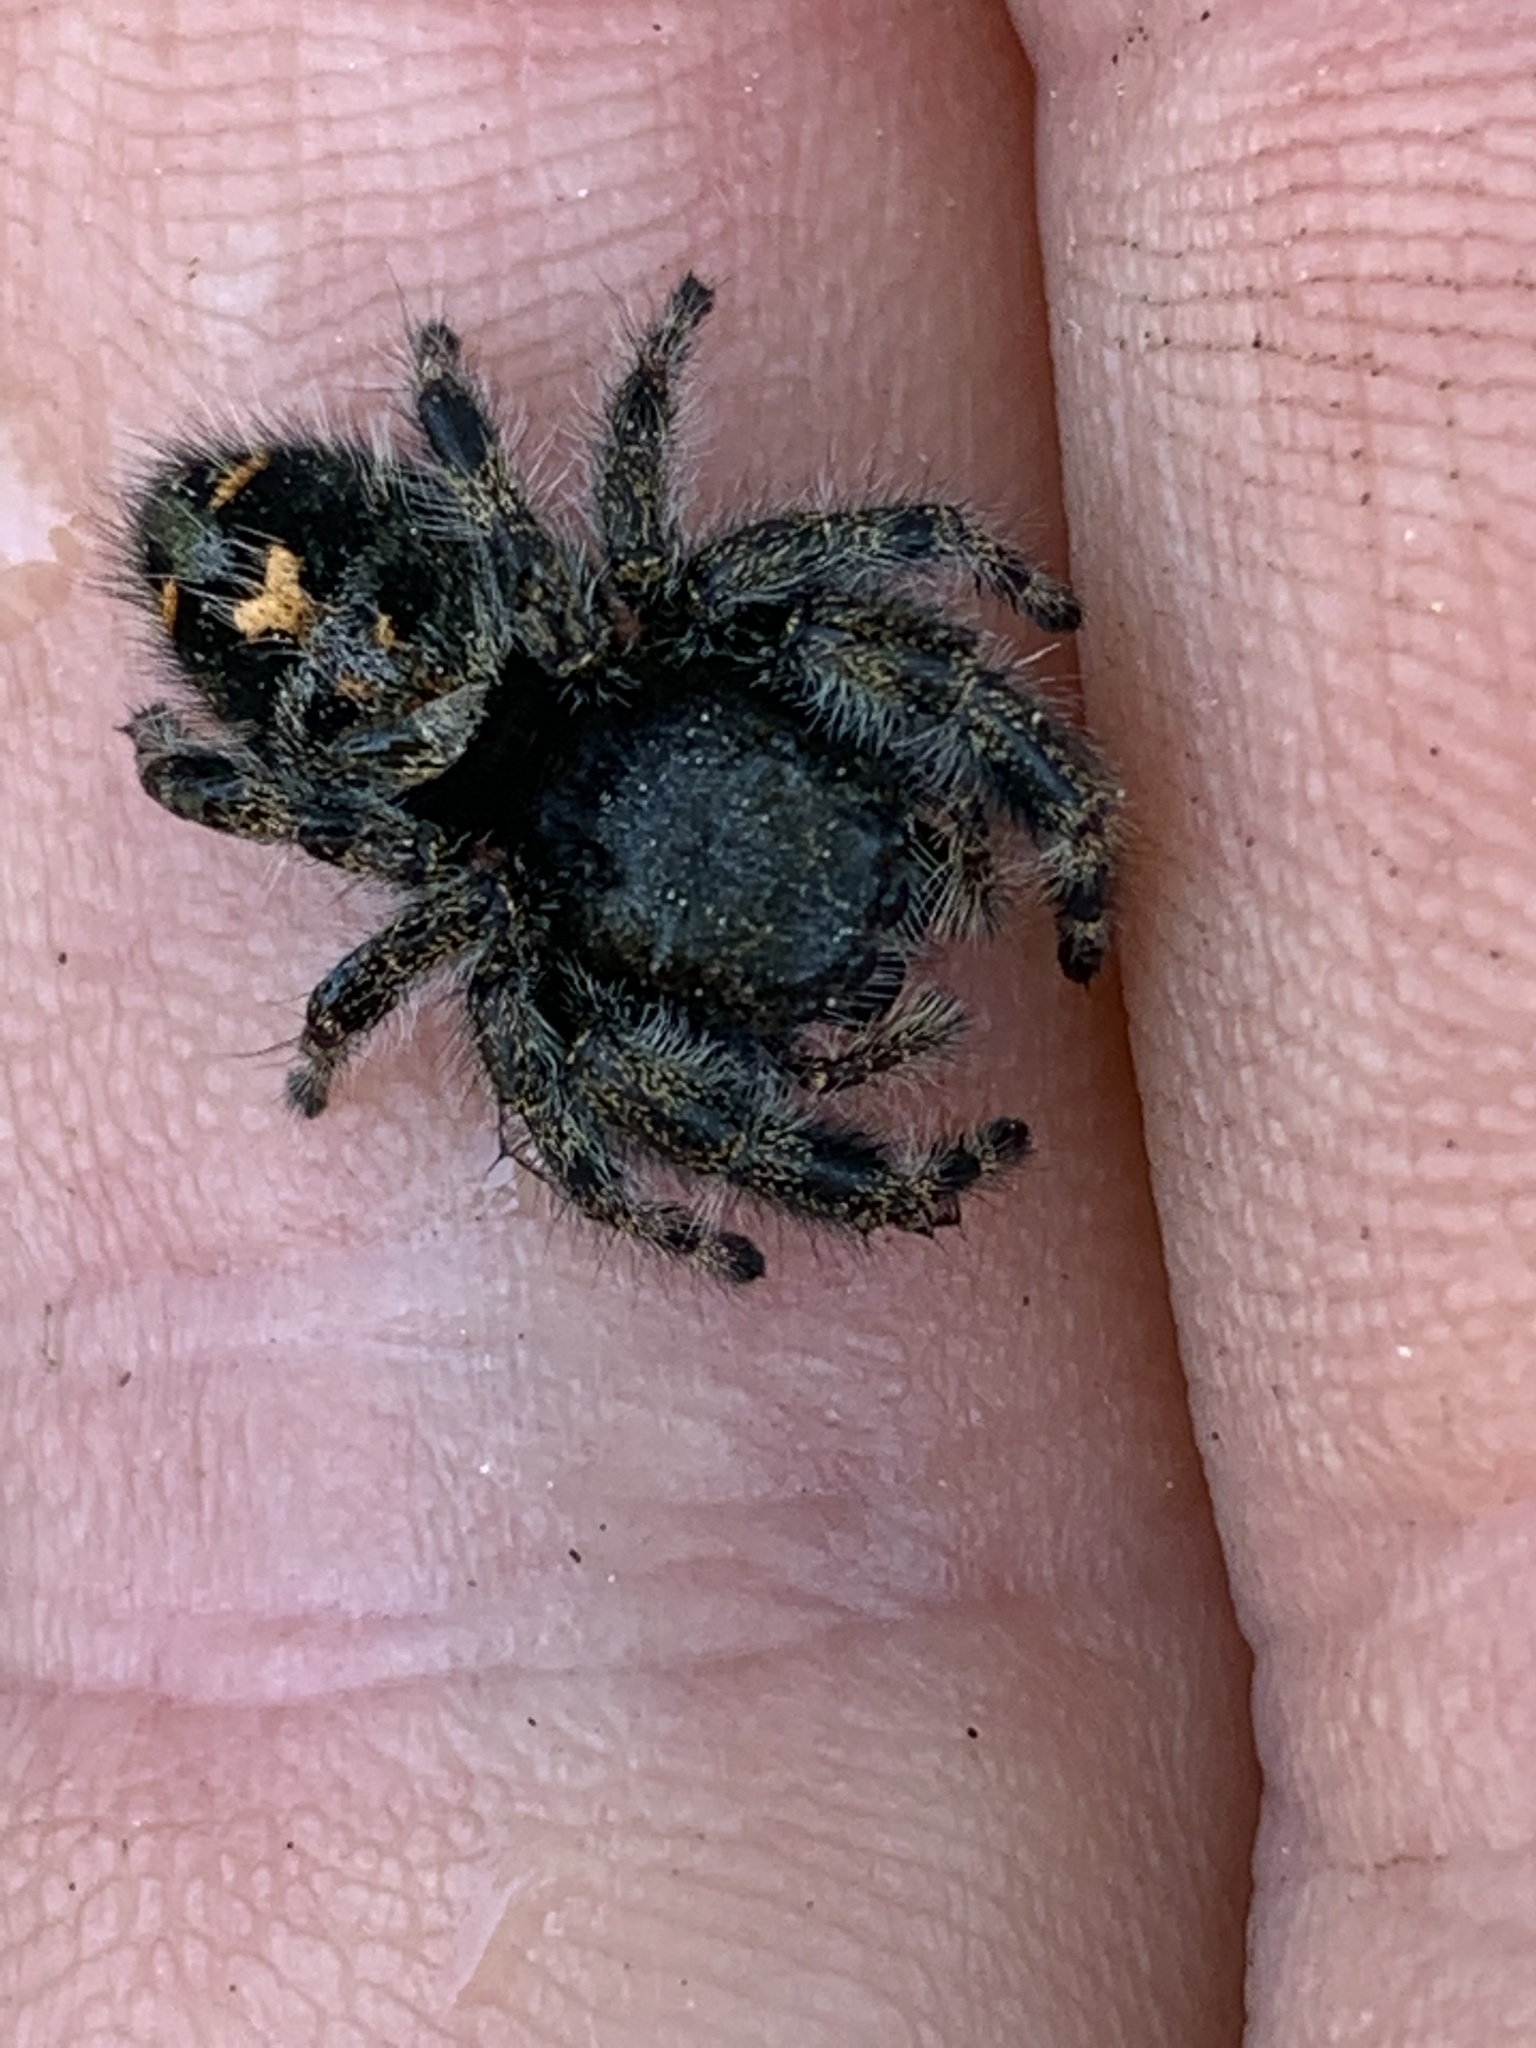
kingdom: Animalia
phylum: Arthropoda
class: Arachnida
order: Araneae
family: Salticidae
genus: Phidippus
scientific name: Phidippus audax
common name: Bold jumper
